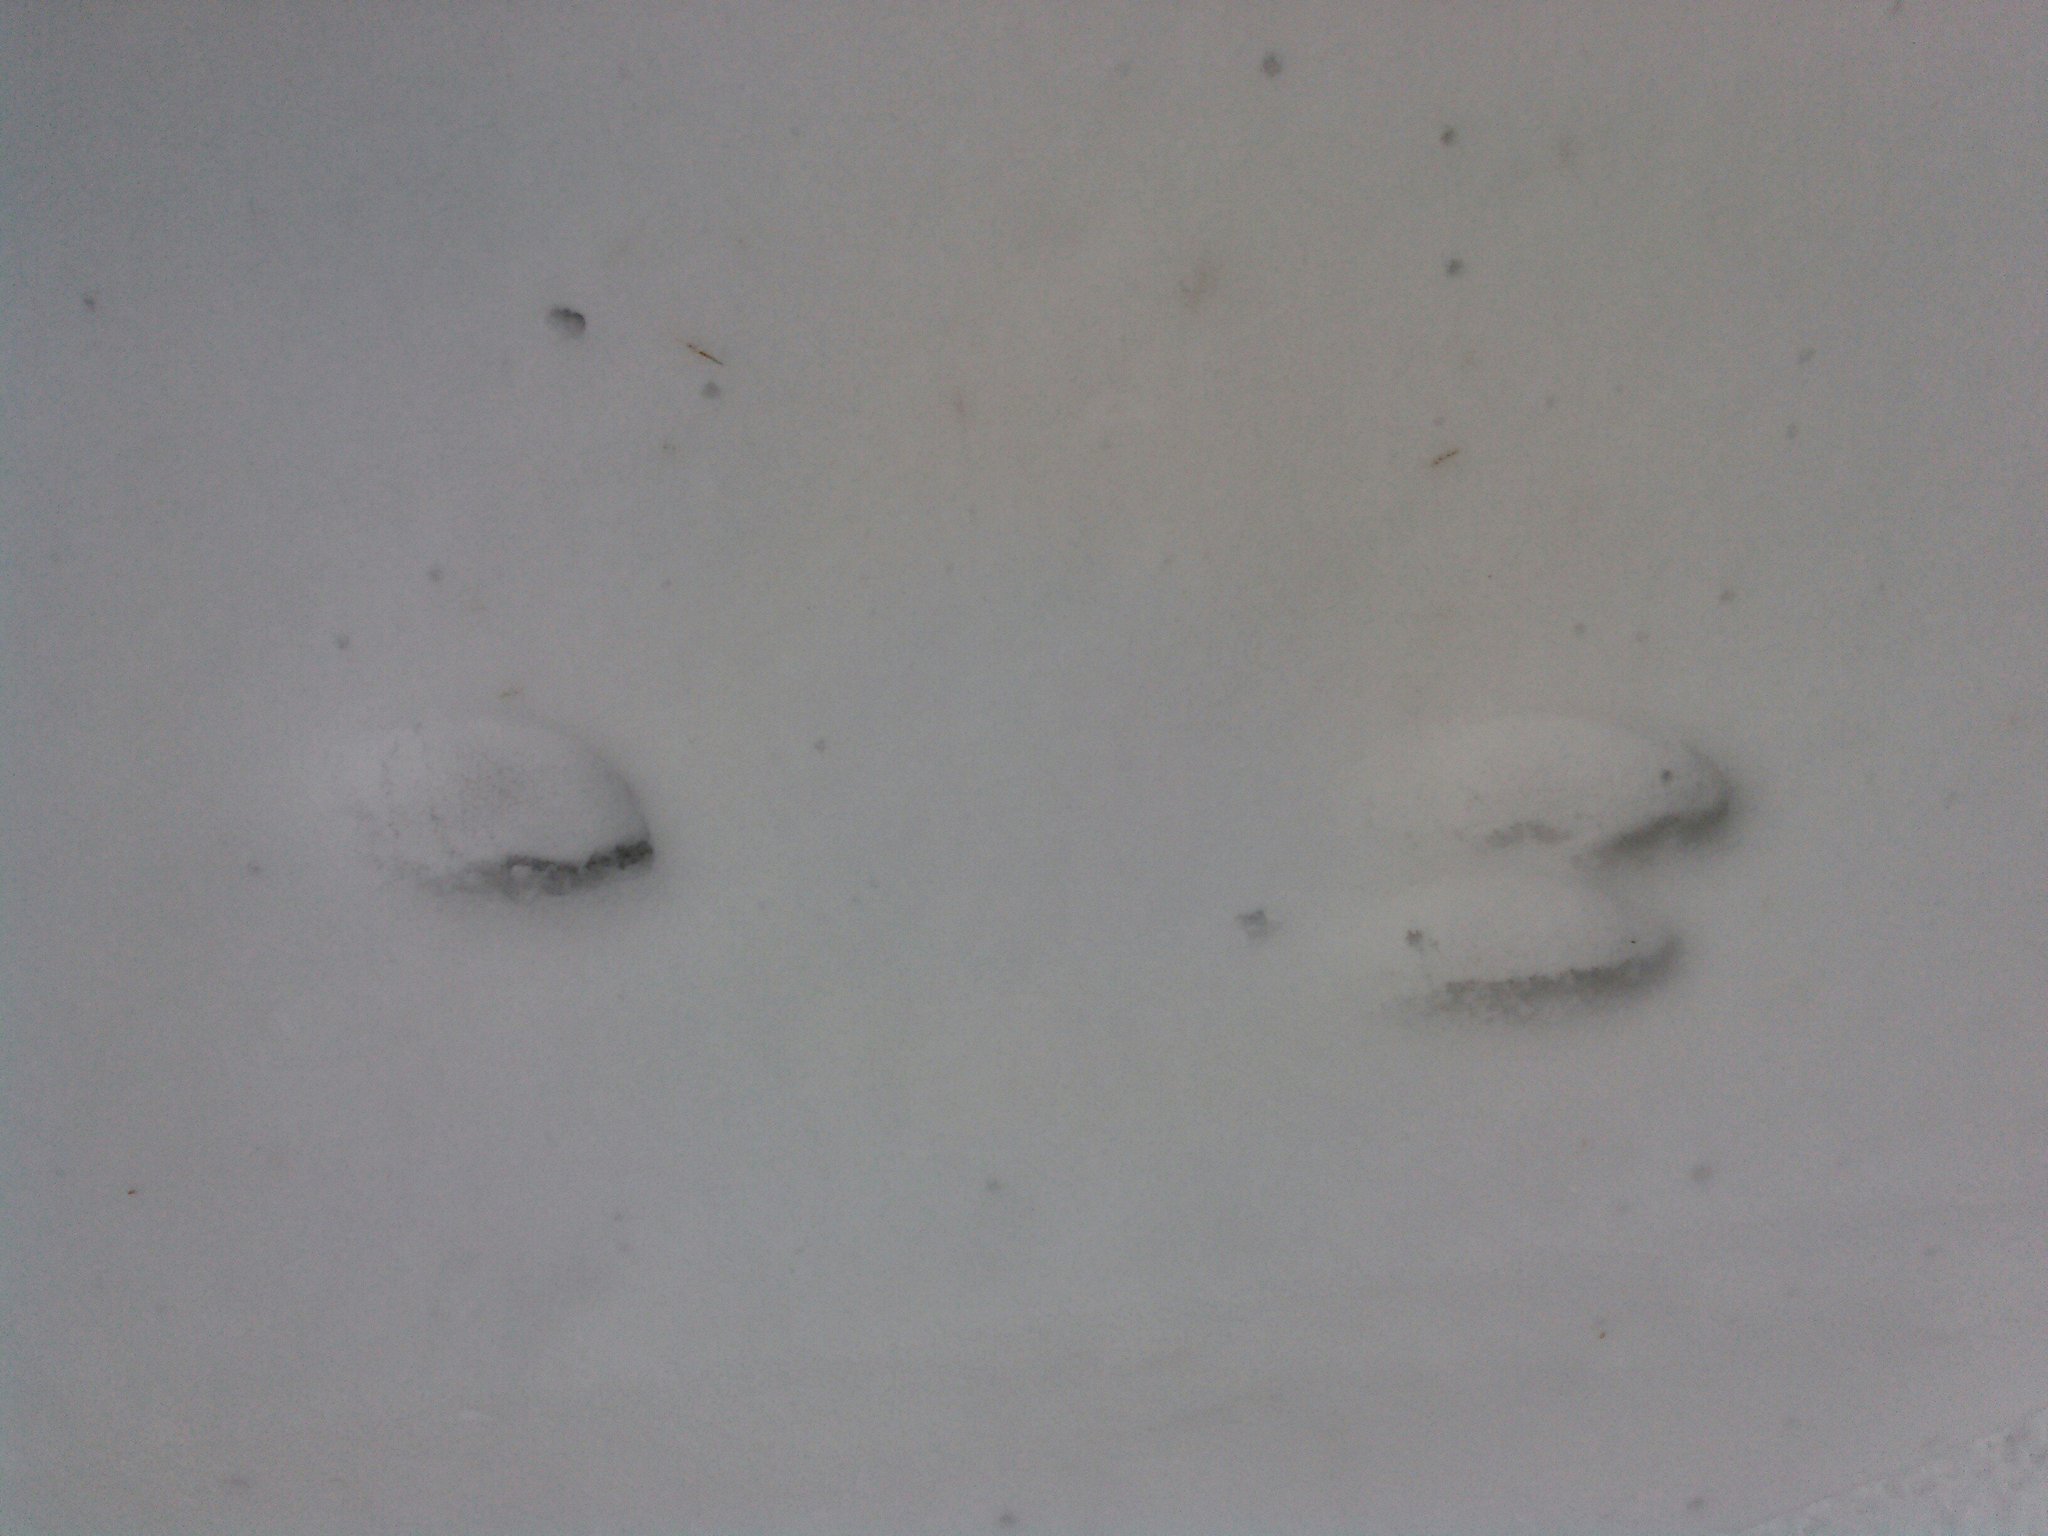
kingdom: Animalia
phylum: Chordata
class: Mammalia
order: Lagomorpha
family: Leporidae
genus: Lepus
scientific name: Lepus americanus
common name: Snowshoe hare
